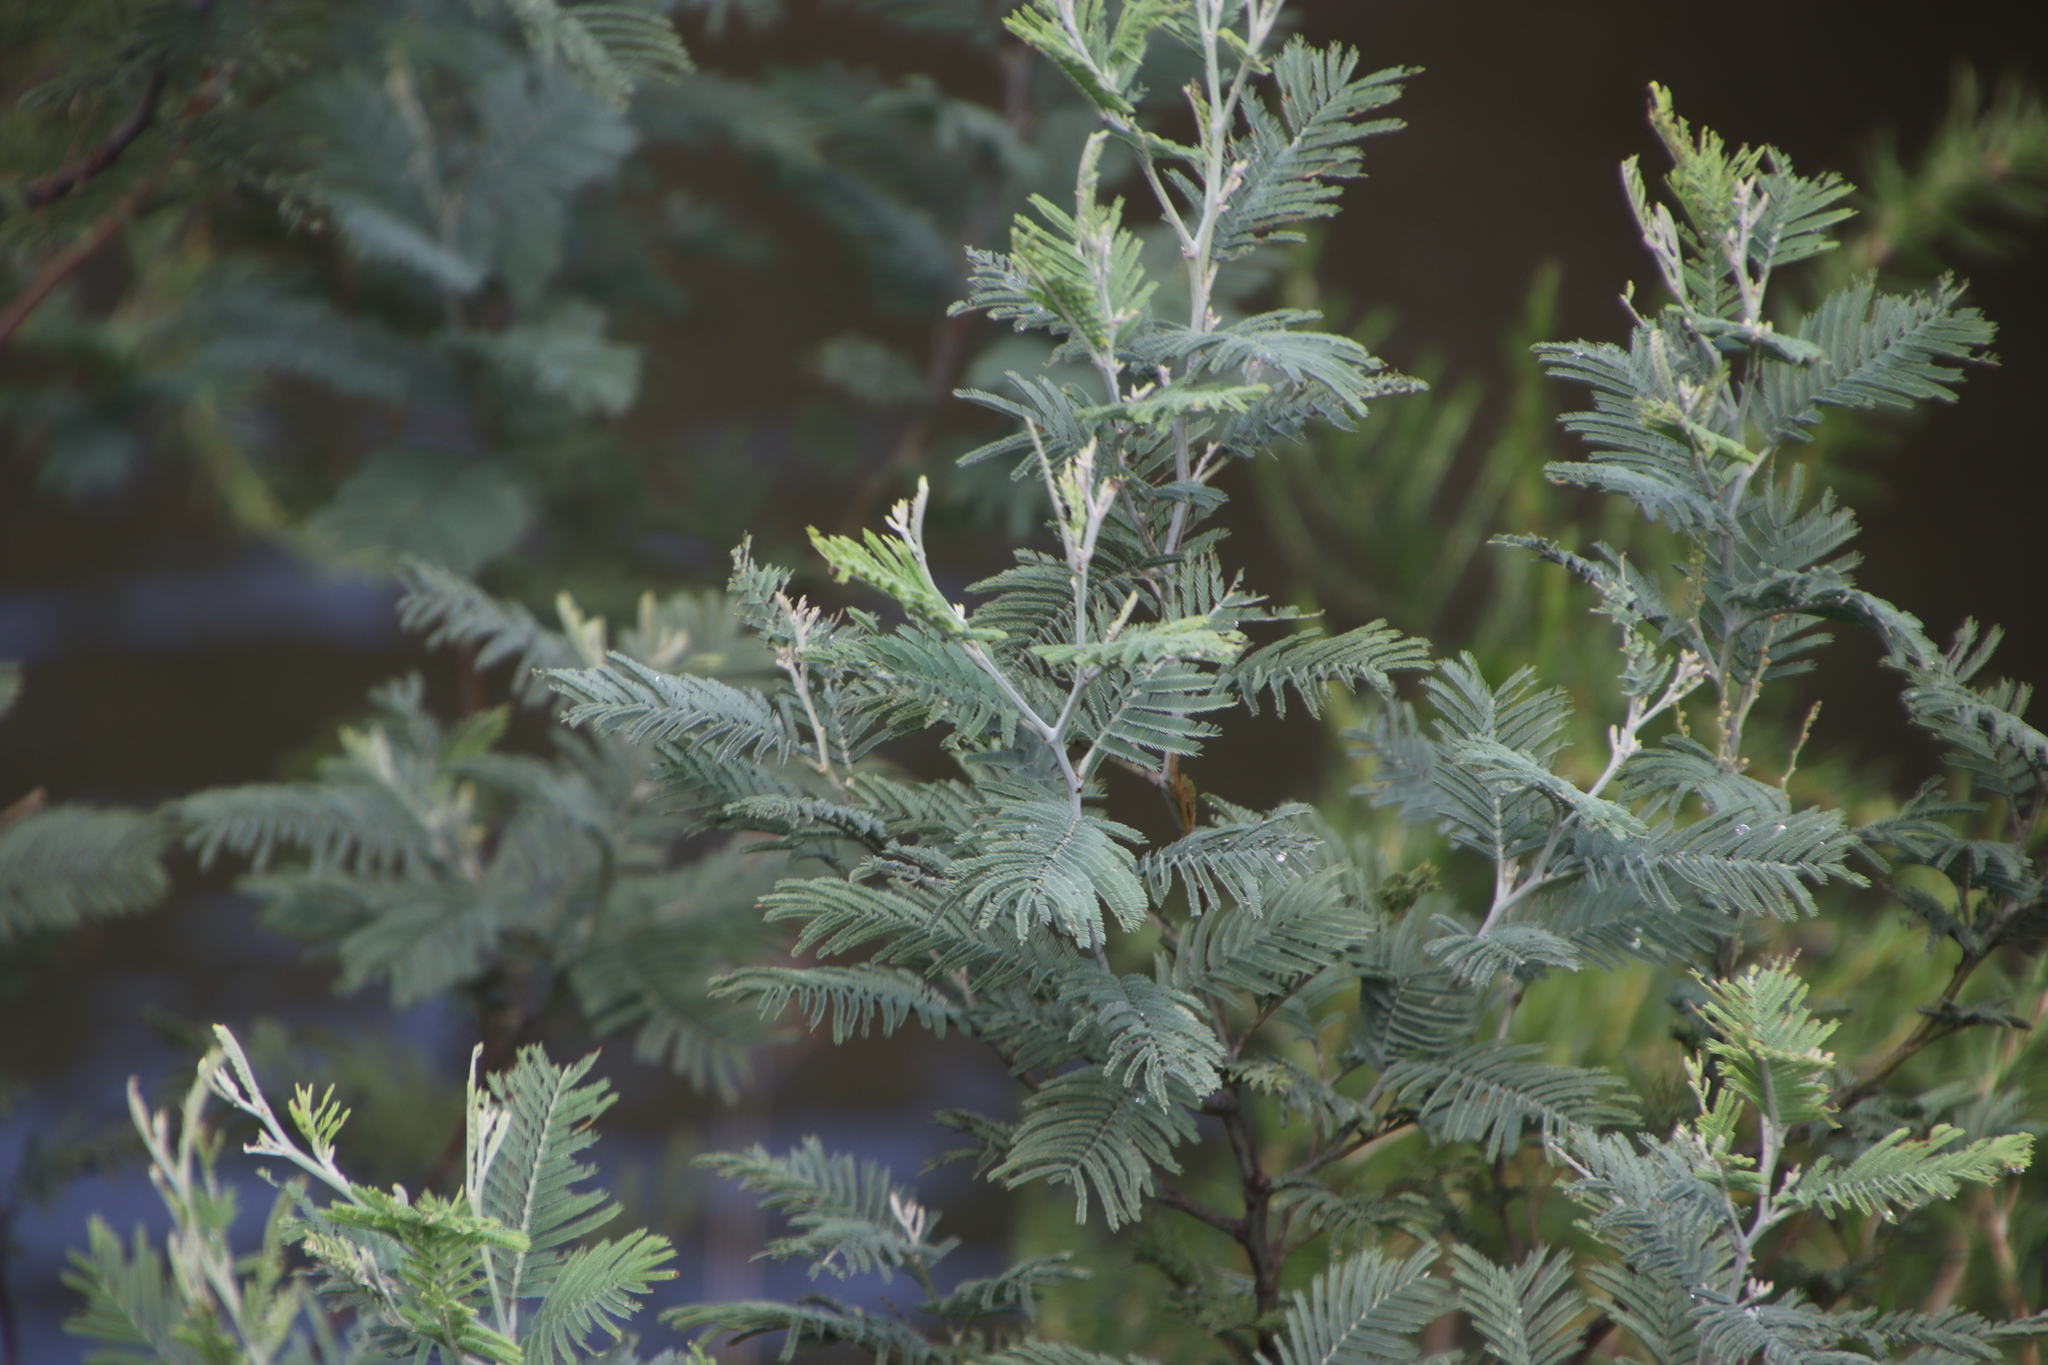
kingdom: Plantae
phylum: Tracheophyta
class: Magnoliopsida
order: Fabales
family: Fabaceae
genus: Acacia
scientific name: Acacia dealbata
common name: Silver wattle
